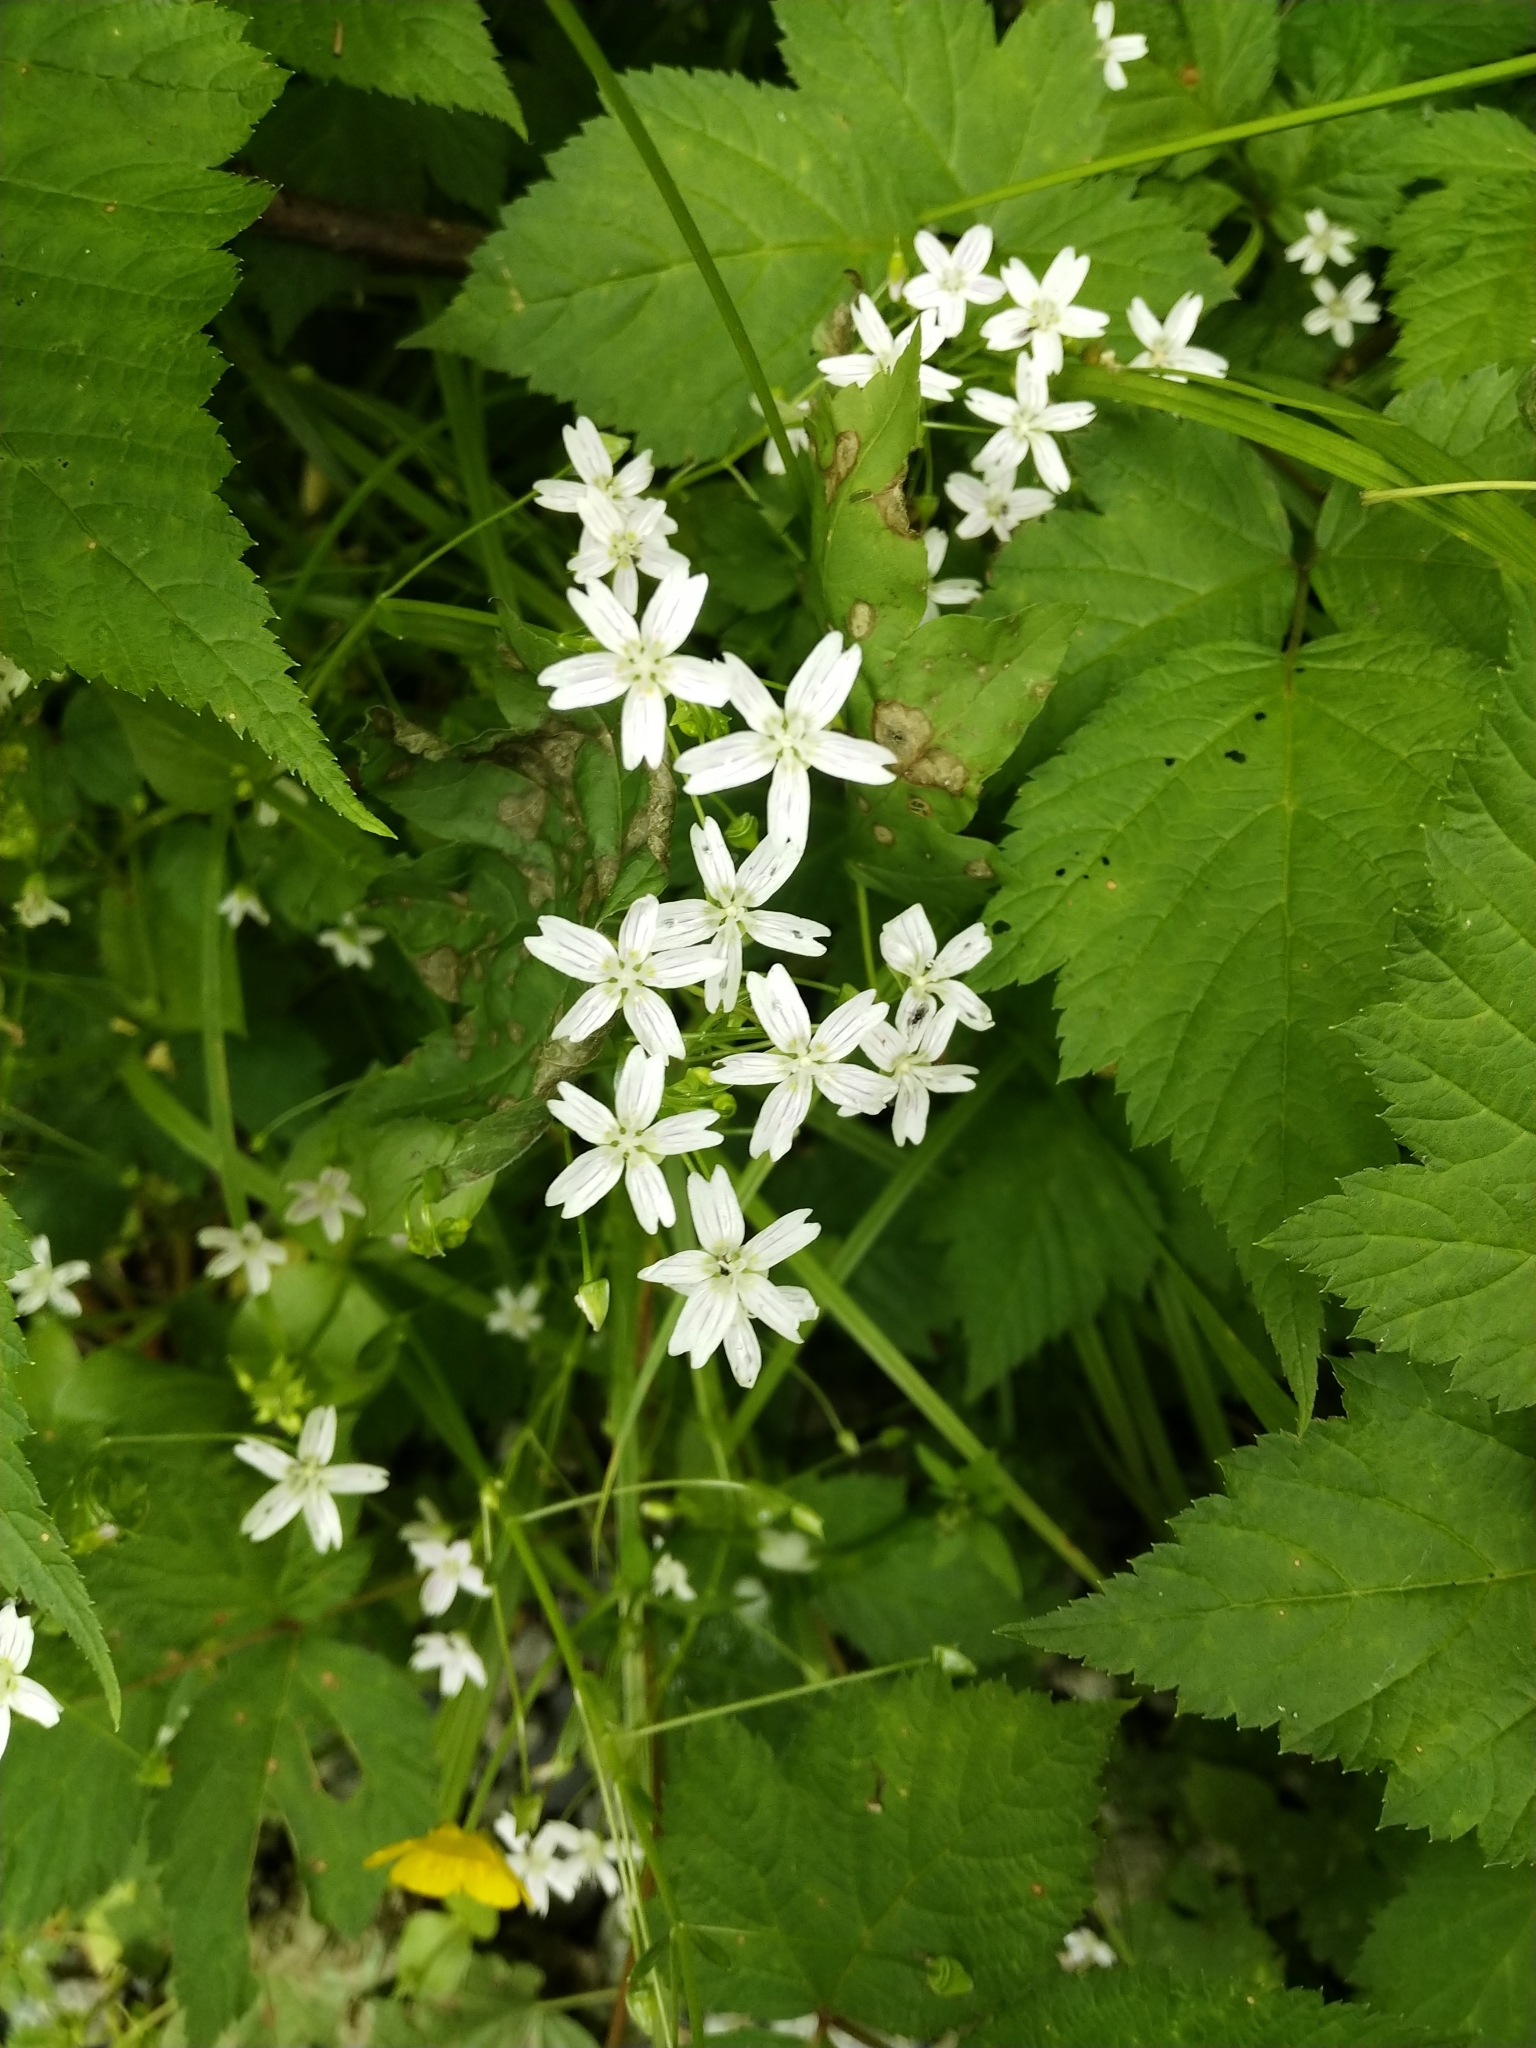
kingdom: Plantae
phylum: Tracheophyta
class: Magnoliopsida
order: Caryophyllales
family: Montiaceae
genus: Claytonia
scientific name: Claytonia sibirica
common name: Pink purslane
